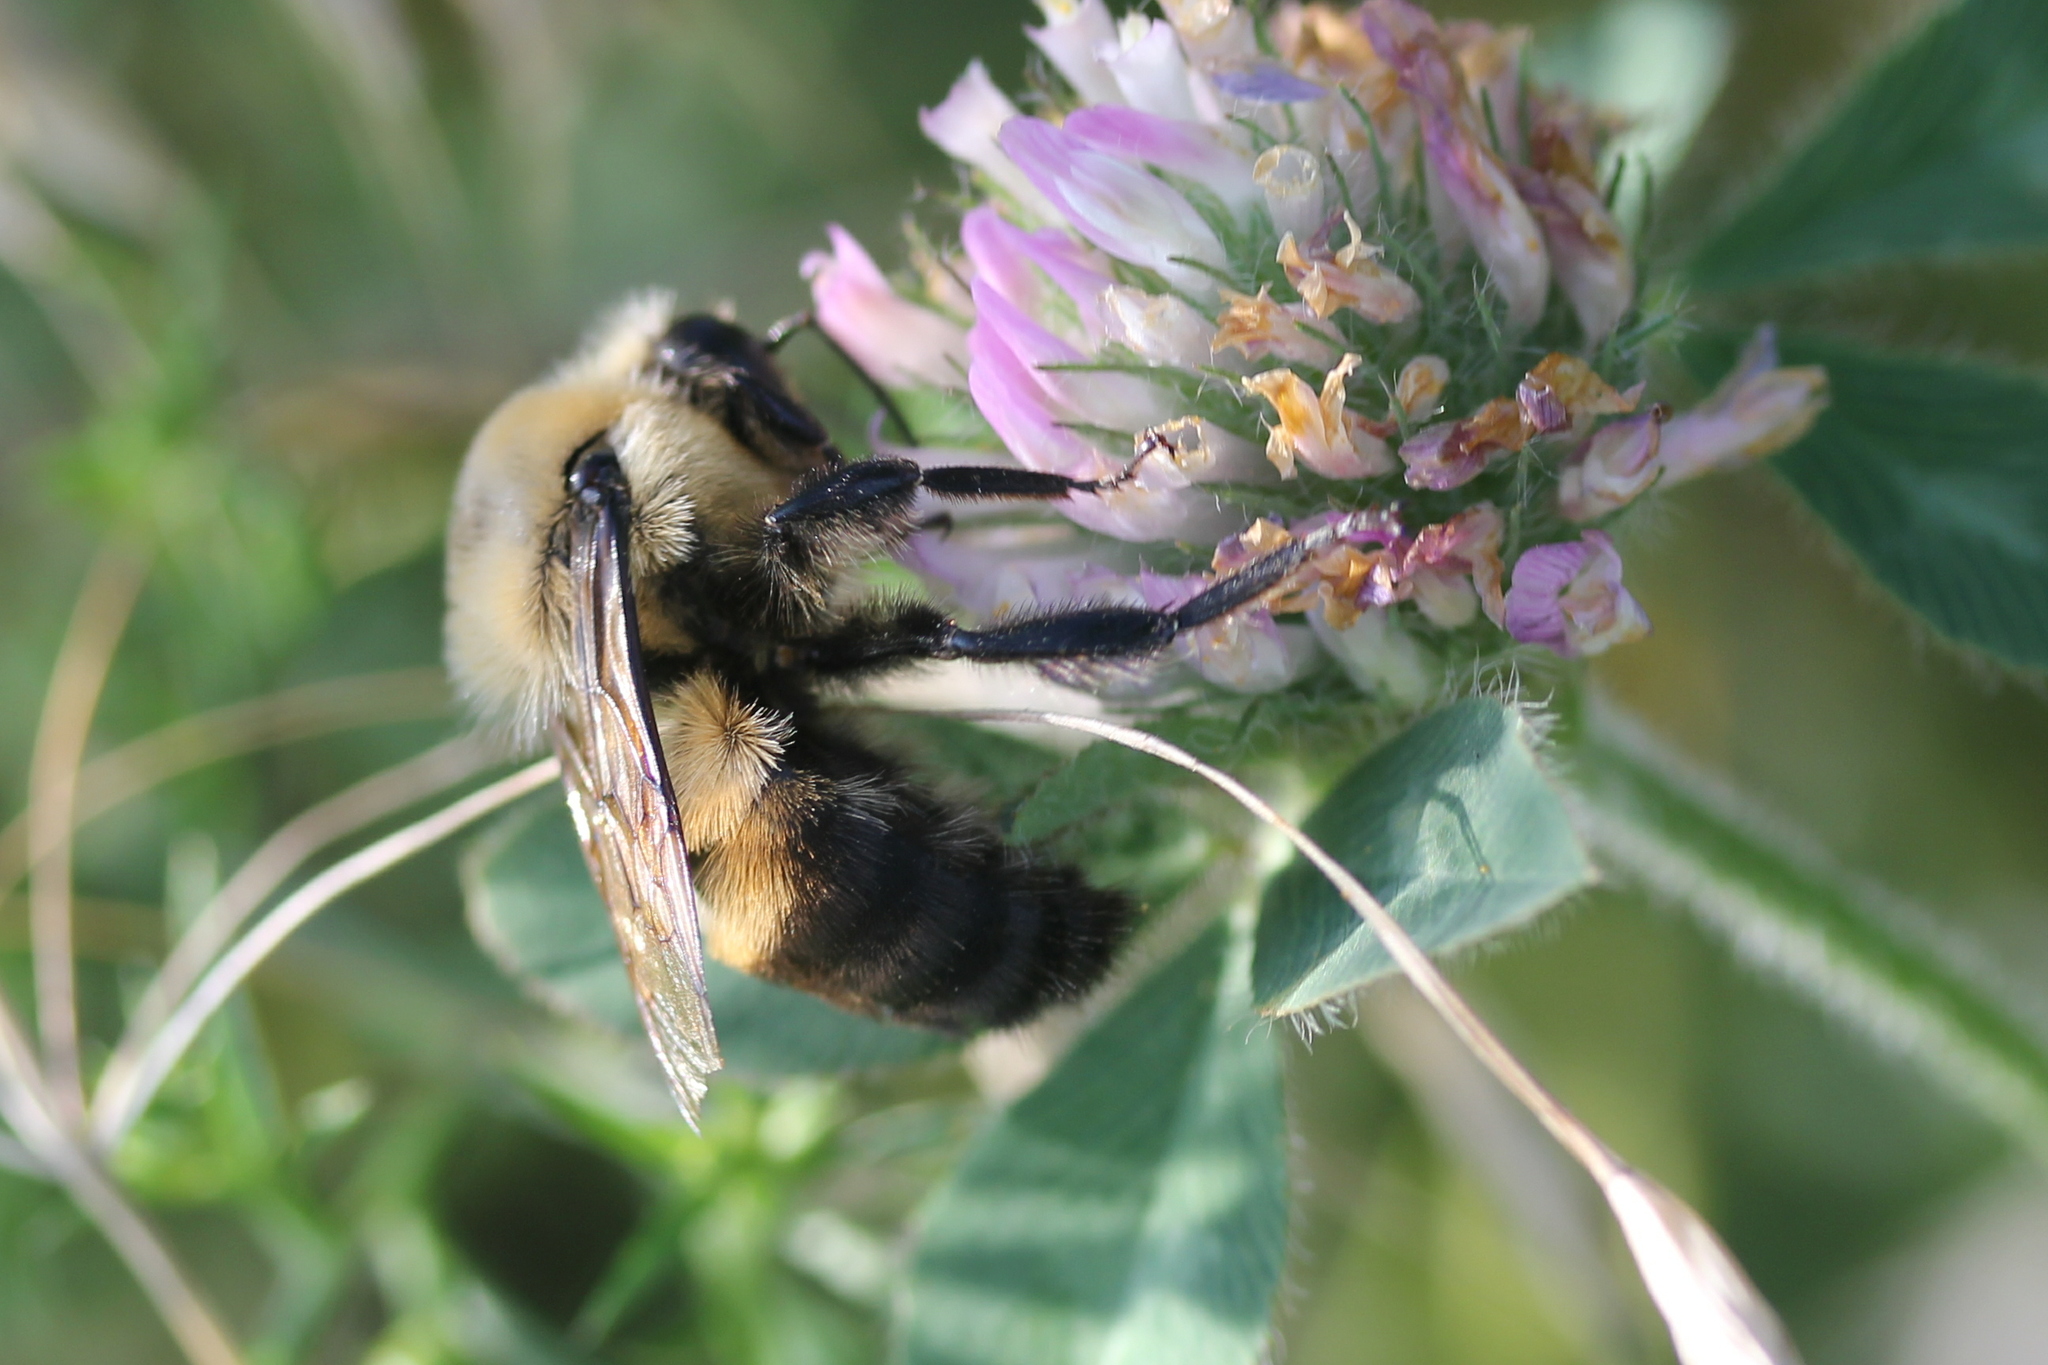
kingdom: Animalia
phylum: Arthropoda
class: Insecta
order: Hymenoptera
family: Apidae
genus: Bombus
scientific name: Bombus griseocollis
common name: Brown-belted bumble bee
